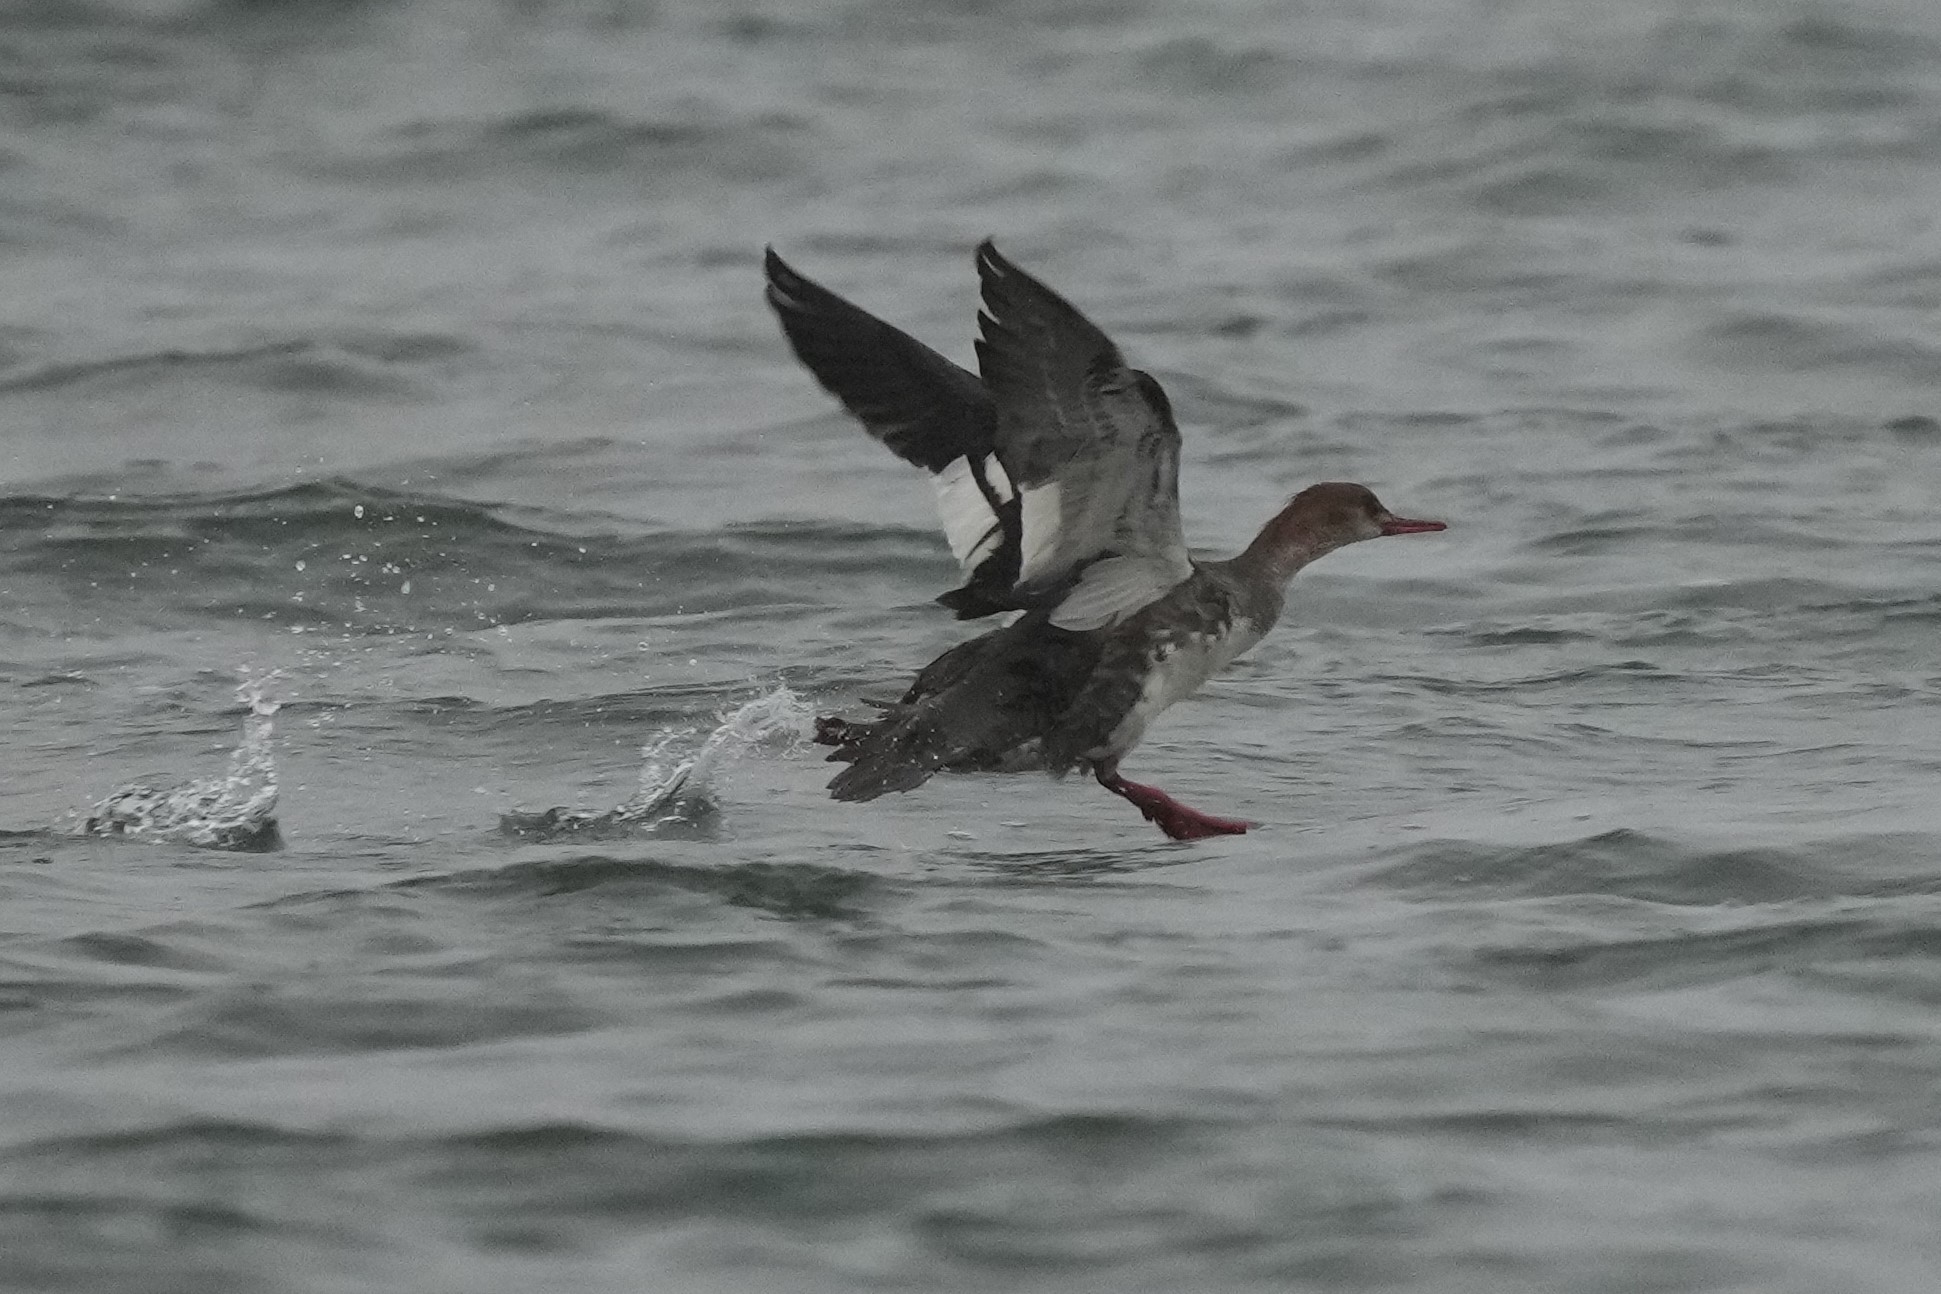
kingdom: Animalia
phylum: Chordata
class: Aves
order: Anseriformes
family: Anatidae
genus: Mergus
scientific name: Mergus serrator
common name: Red-breasted merganser
